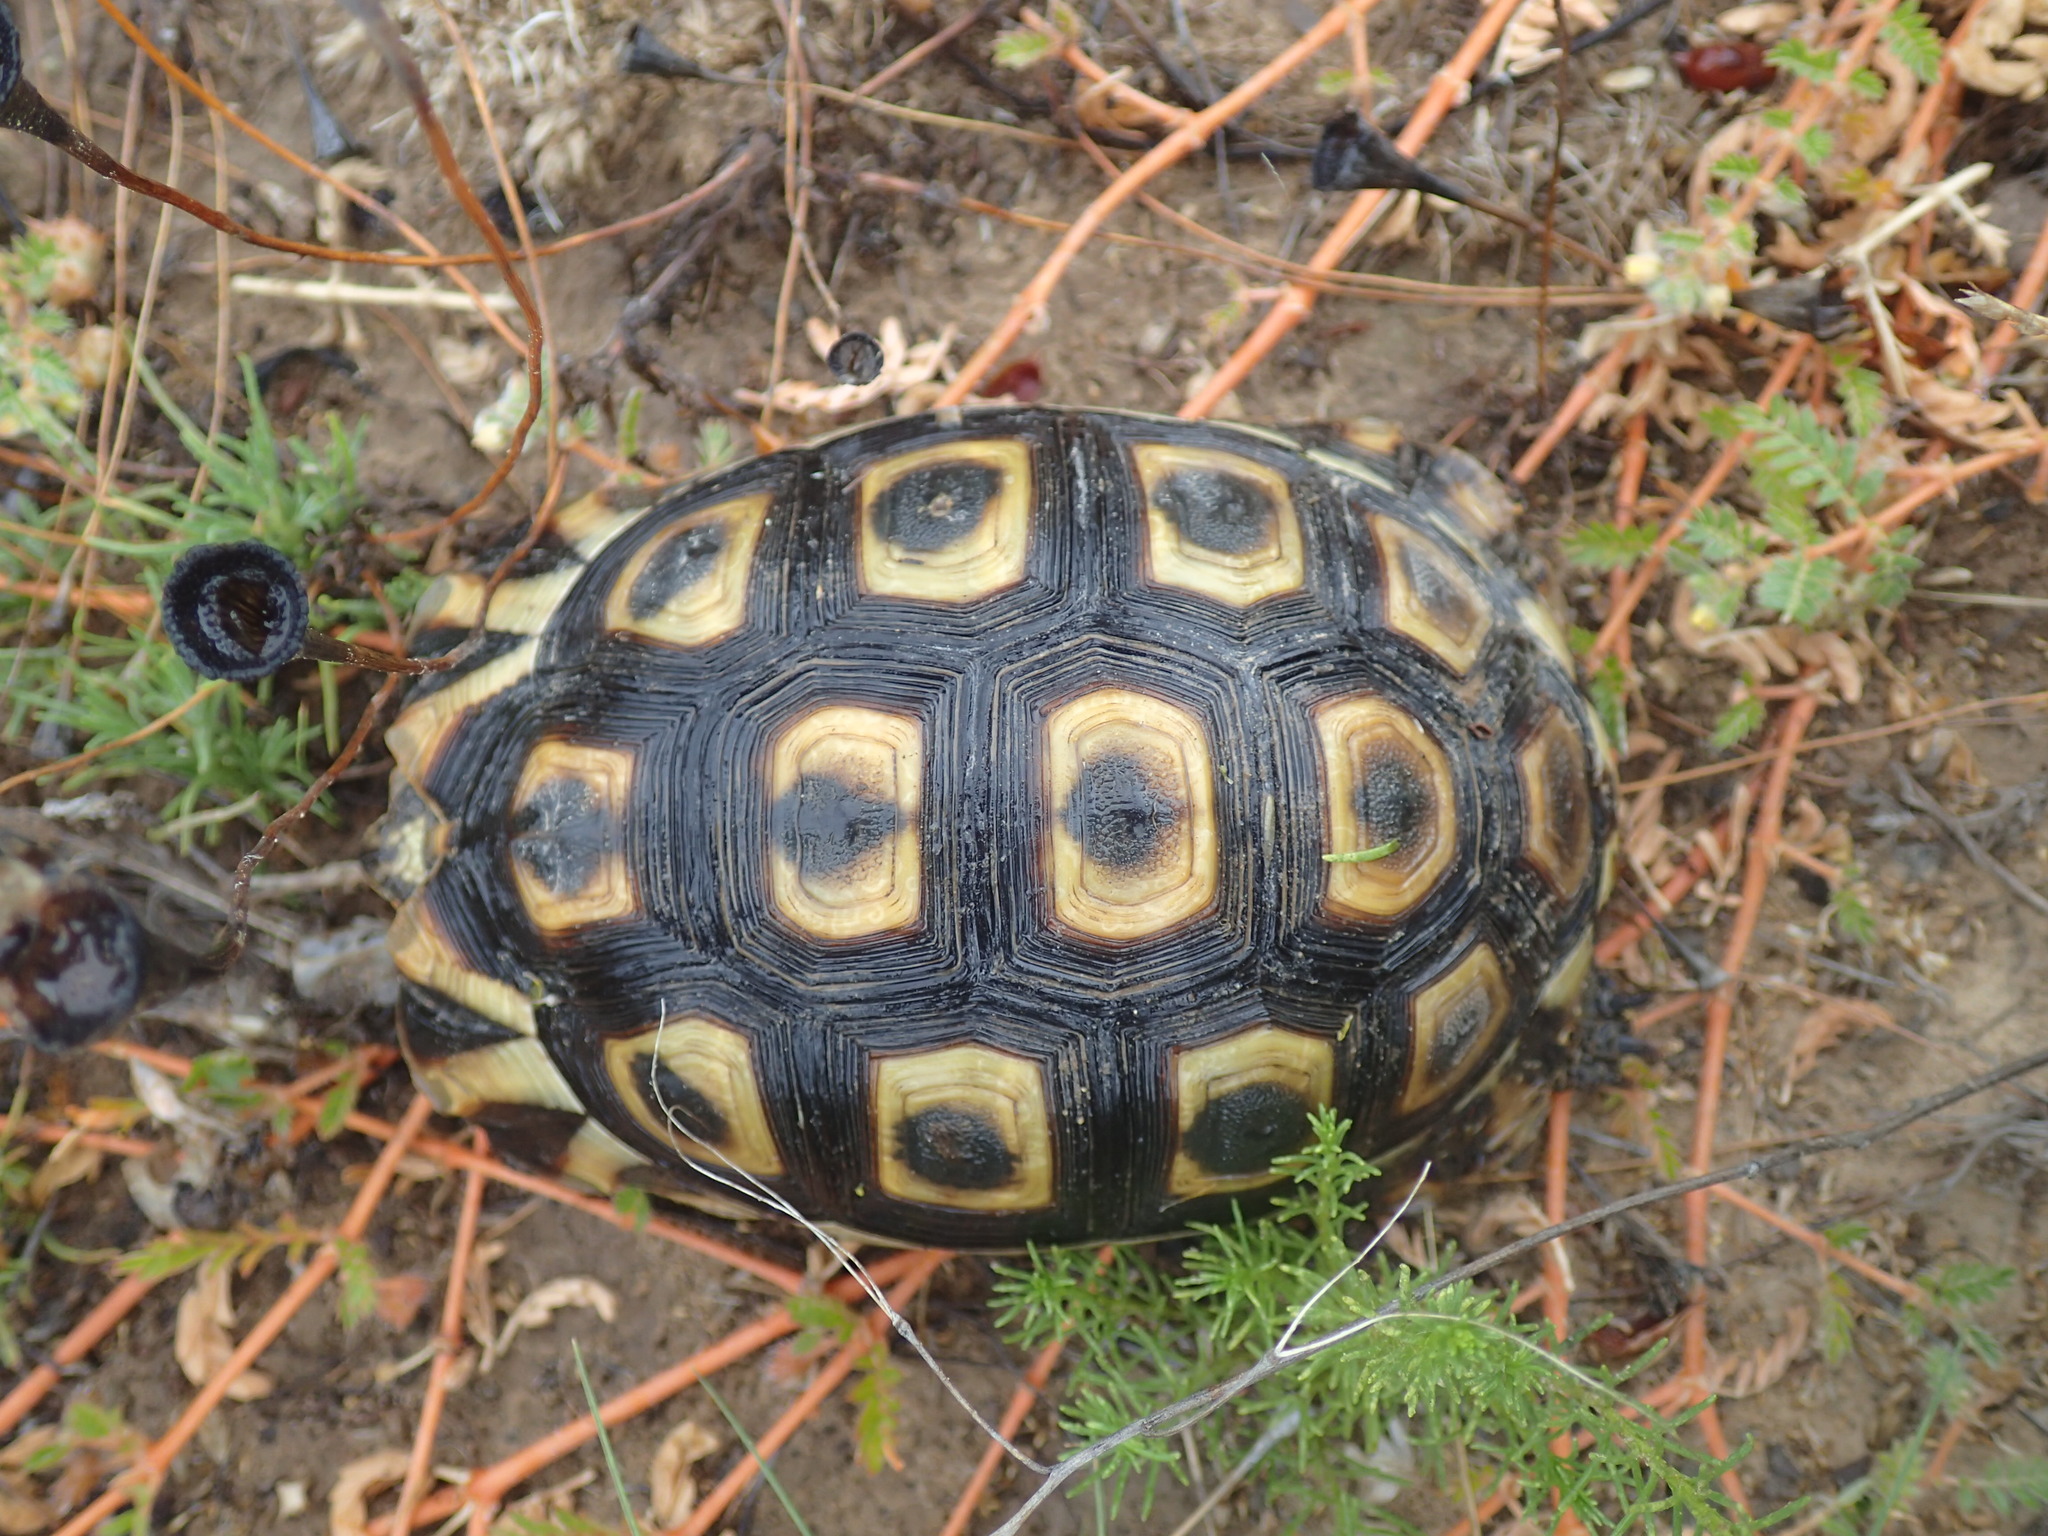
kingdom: Animalia
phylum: Chordata
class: Testudines
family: Testudinidae
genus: Chersina
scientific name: Chersina angulata
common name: South african bowsprit tortoise
